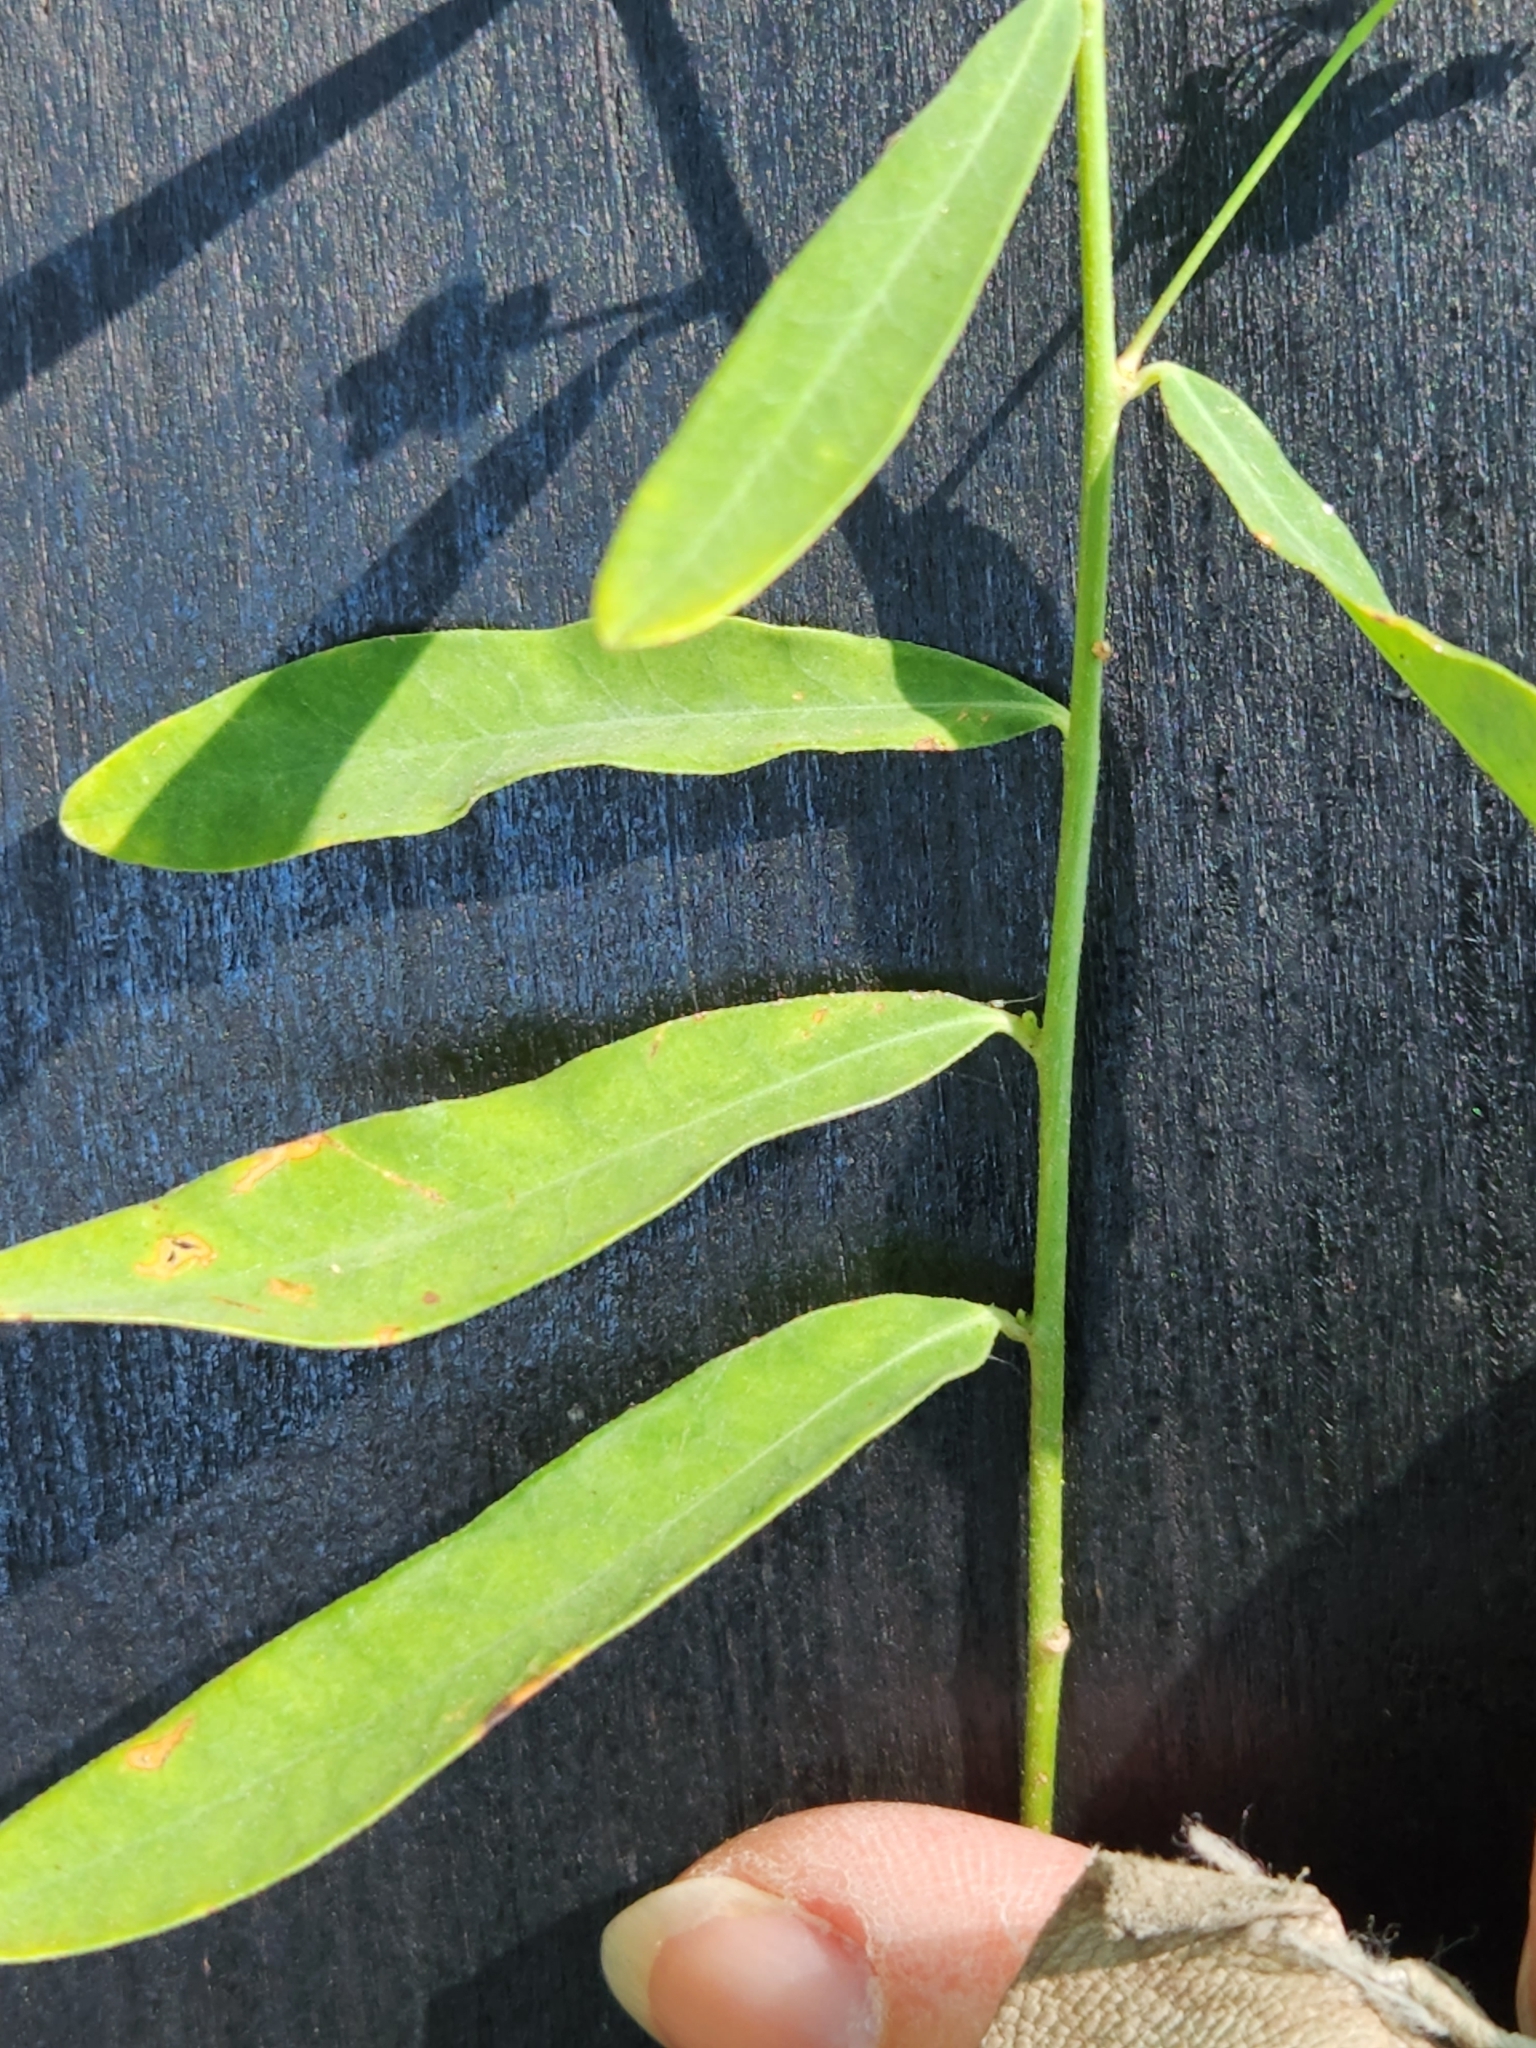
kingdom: Plantae
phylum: Tracheophyta
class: Magnoliopsida
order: Malpighiales
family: Euphorbiaceae
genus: Euphorbia
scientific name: Euphorbia corollata
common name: Flowering spurge
